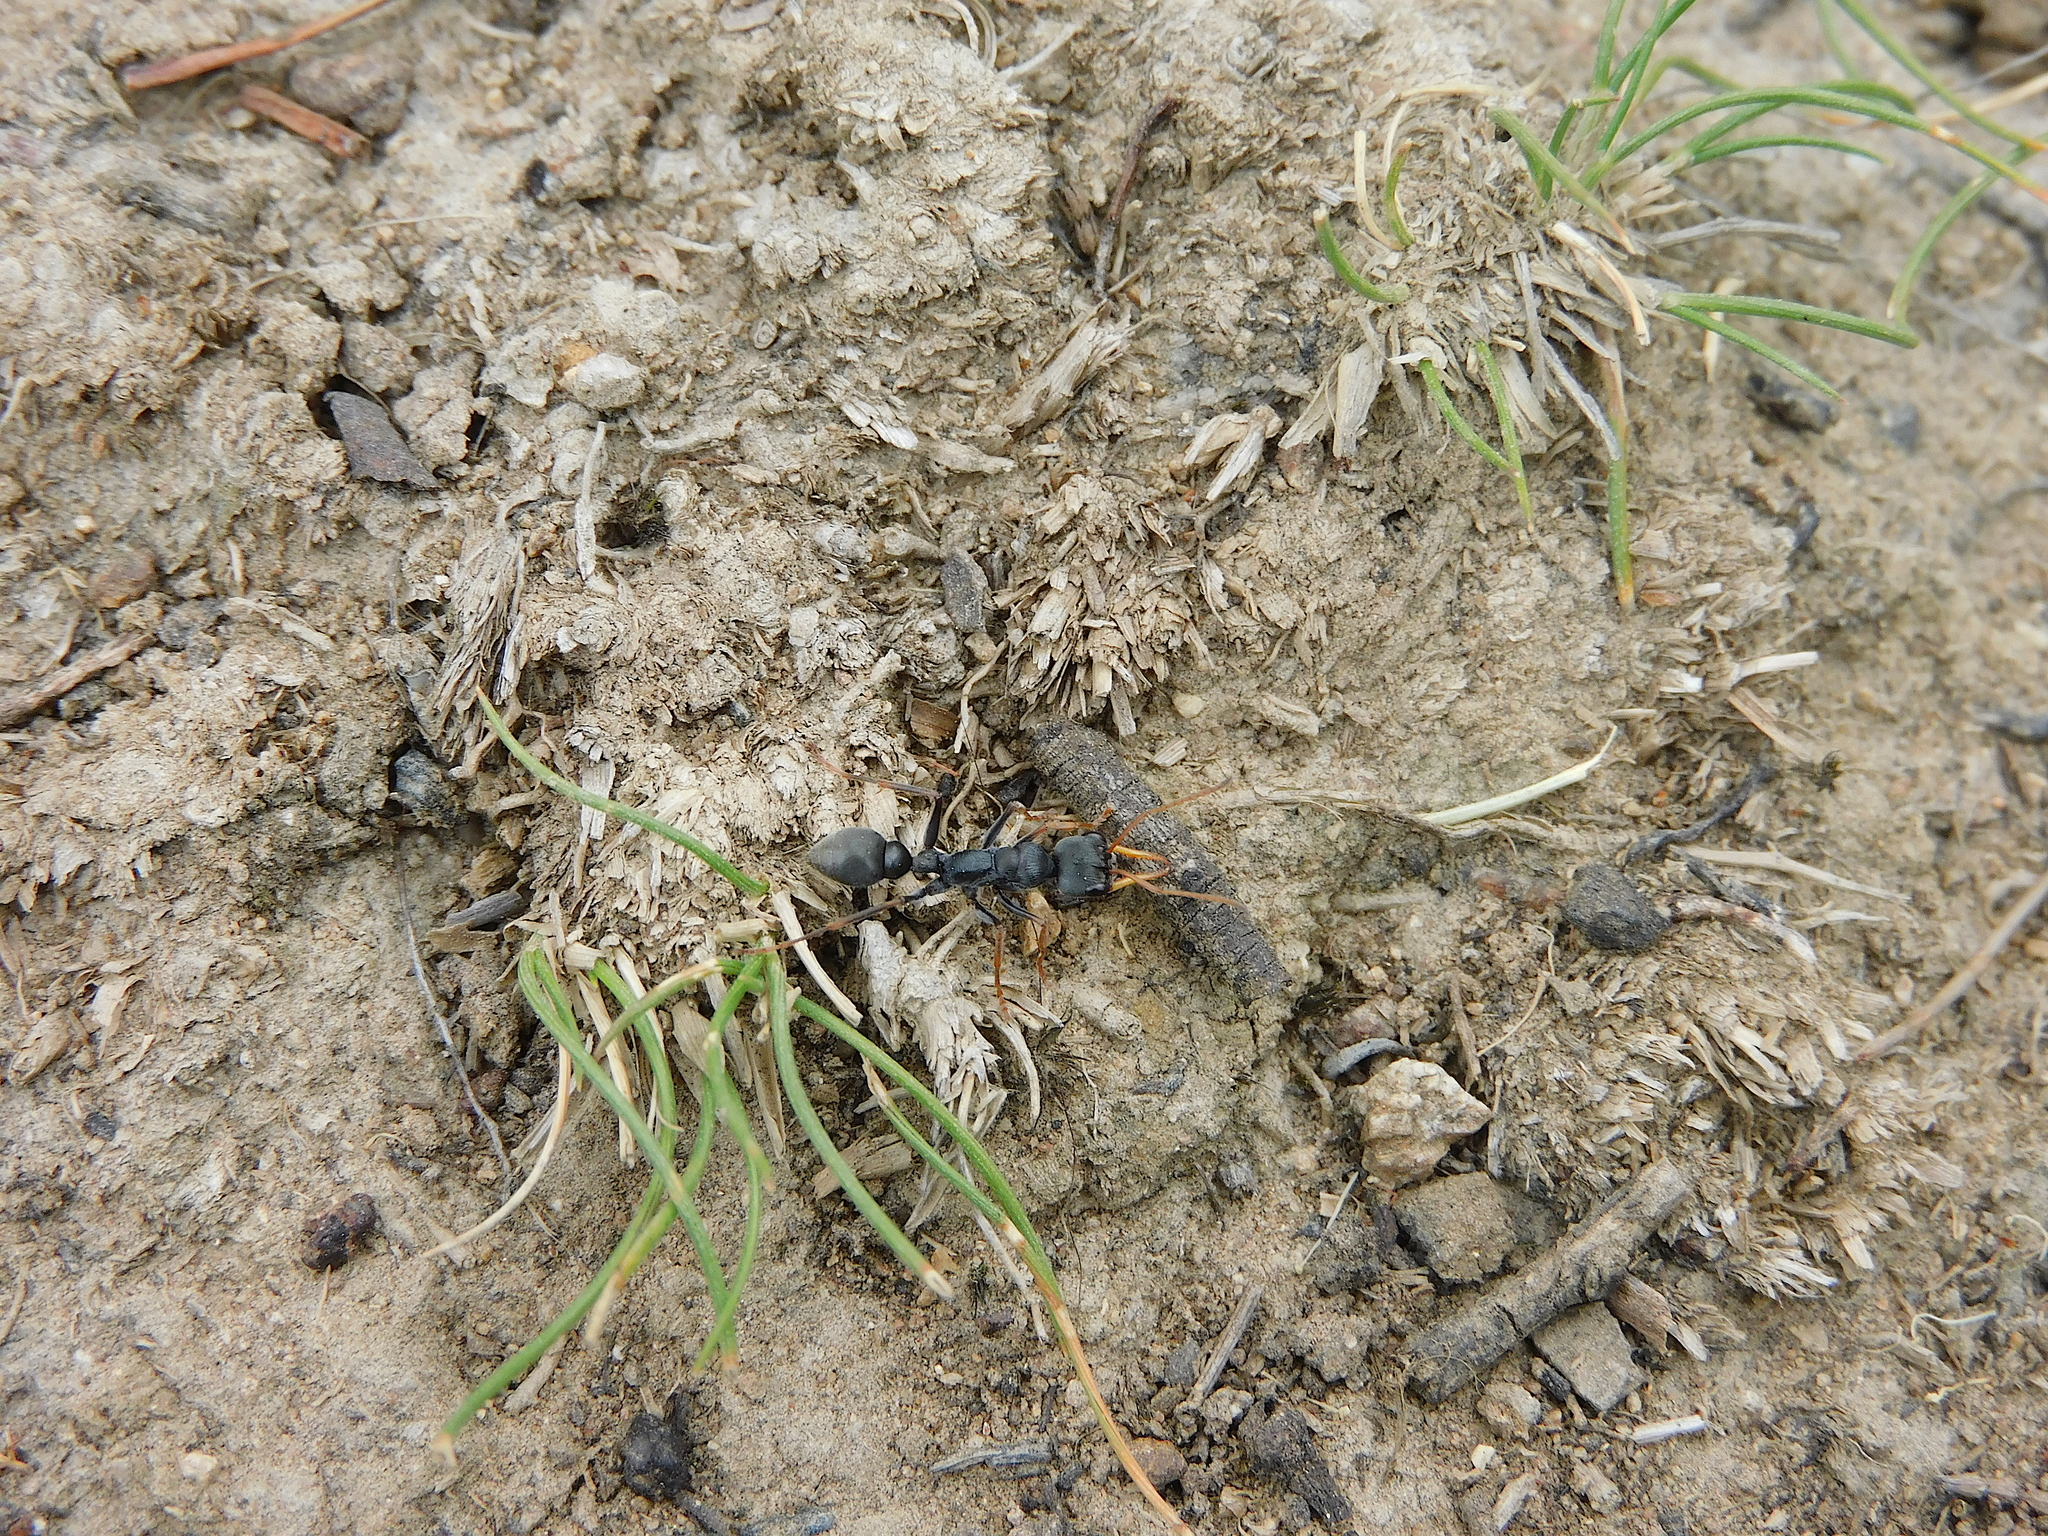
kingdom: Animalia
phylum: Arthropoda
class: Insecta
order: Hymenoptera
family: Formicidae
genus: Myrmecia
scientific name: Myrmecia pilosula
